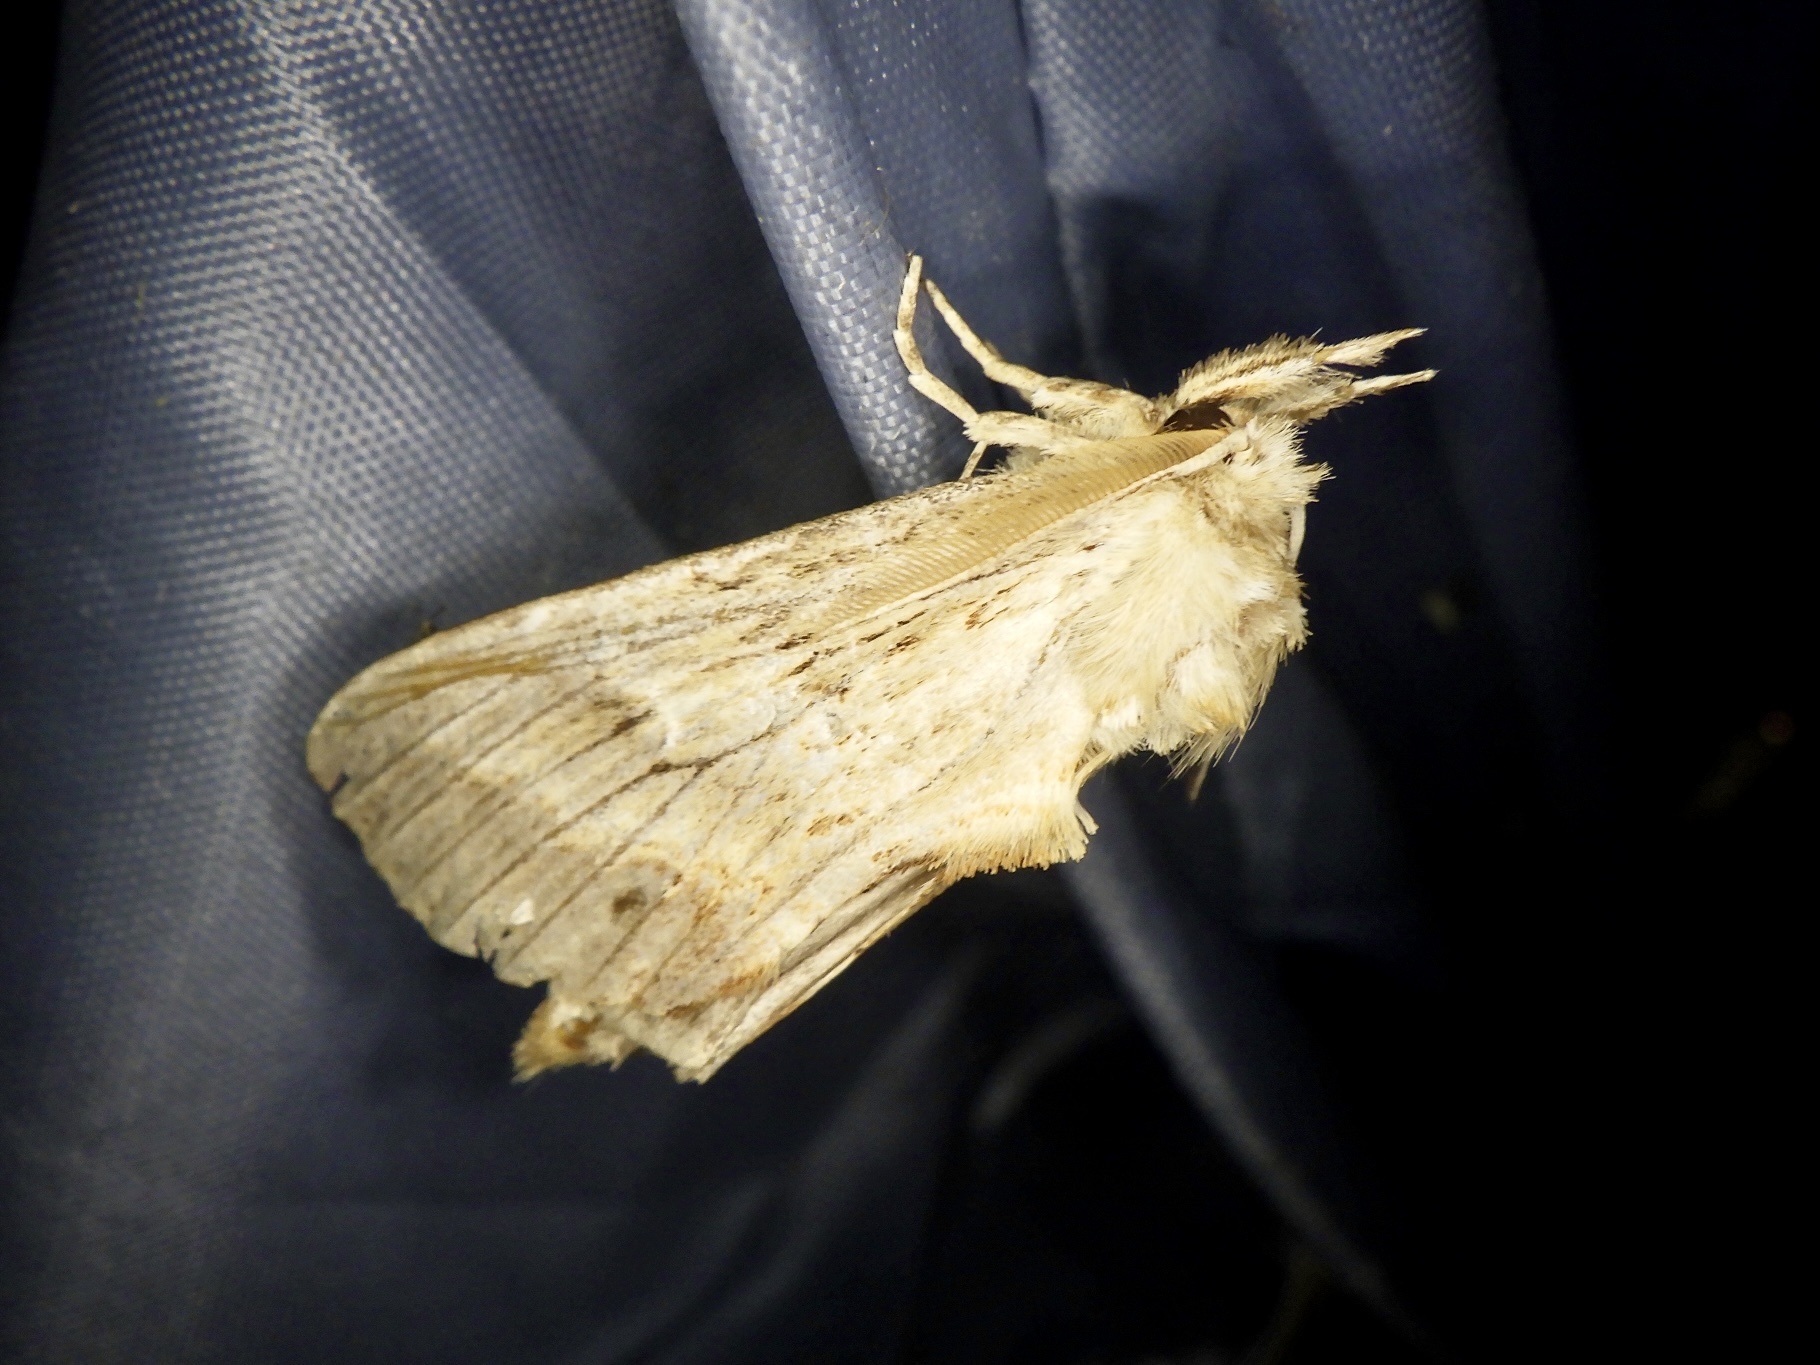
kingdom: Animalia
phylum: Arthropoda
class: Insecta
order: Lepidoptera
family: Notodontidae
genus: Pterostoma
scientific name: Pterostoma gigantina
